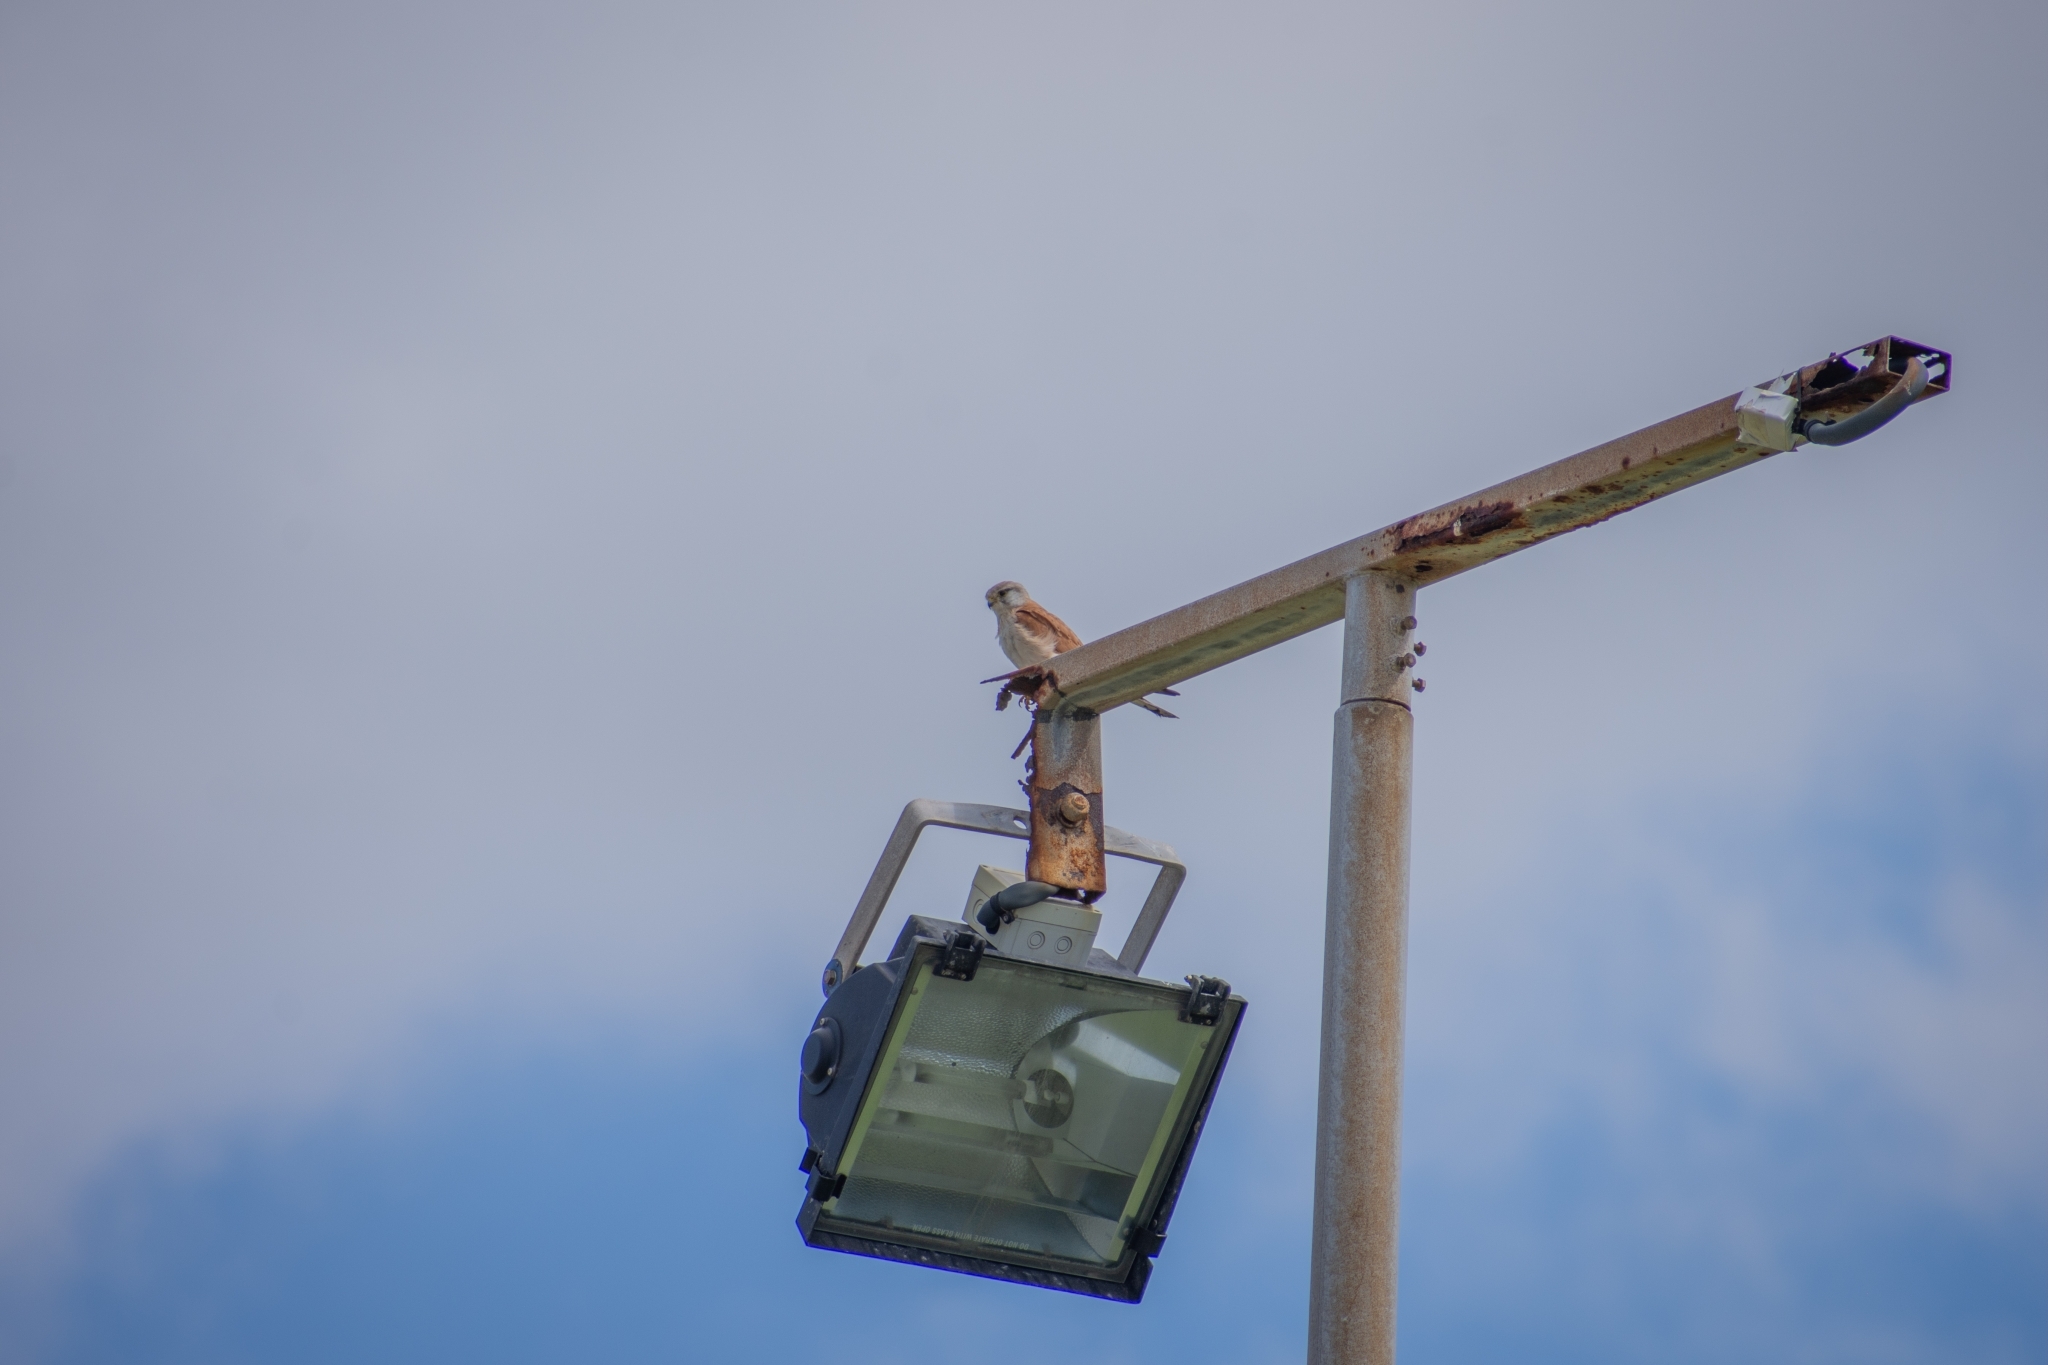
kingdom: Animalia
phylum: Chordata
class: Aves
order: Falconiformes
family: Falconidae
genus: Falco
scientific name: Falco cenchroides
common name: Nankeen kestrel
